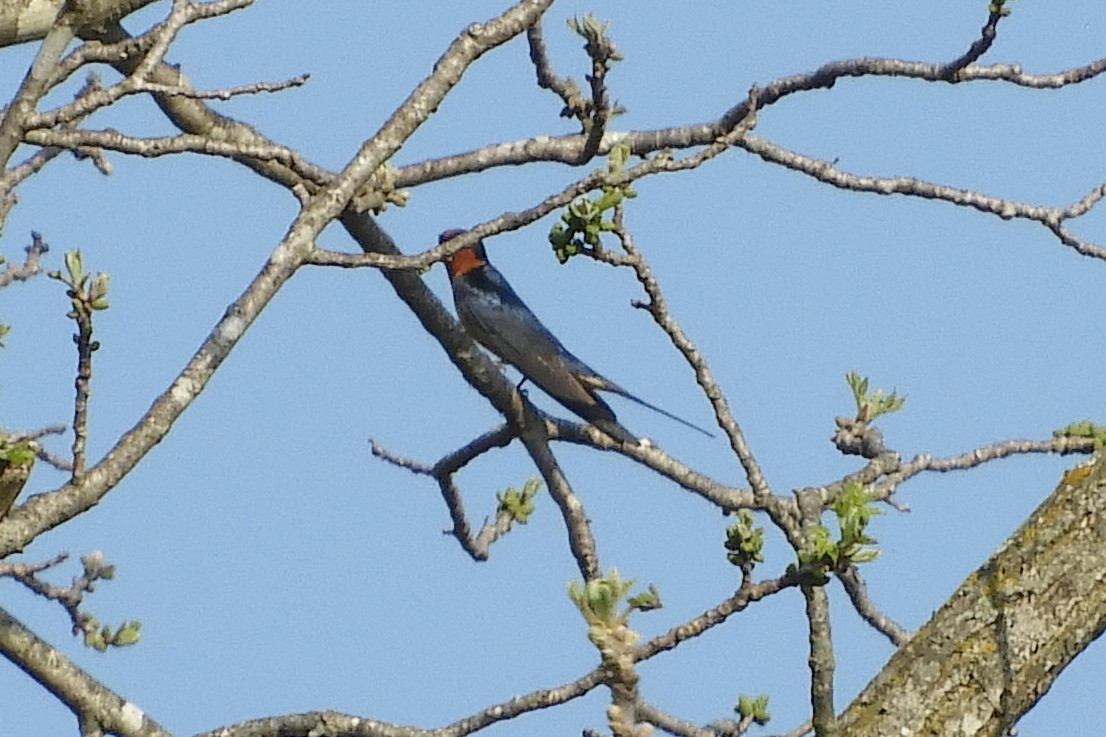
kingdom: Animalia
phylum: Chordata
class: Aves
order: Passeriformes
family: Hirundinidae
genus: Hirundo
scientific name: Hirundo rustica
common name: Barn swallow
